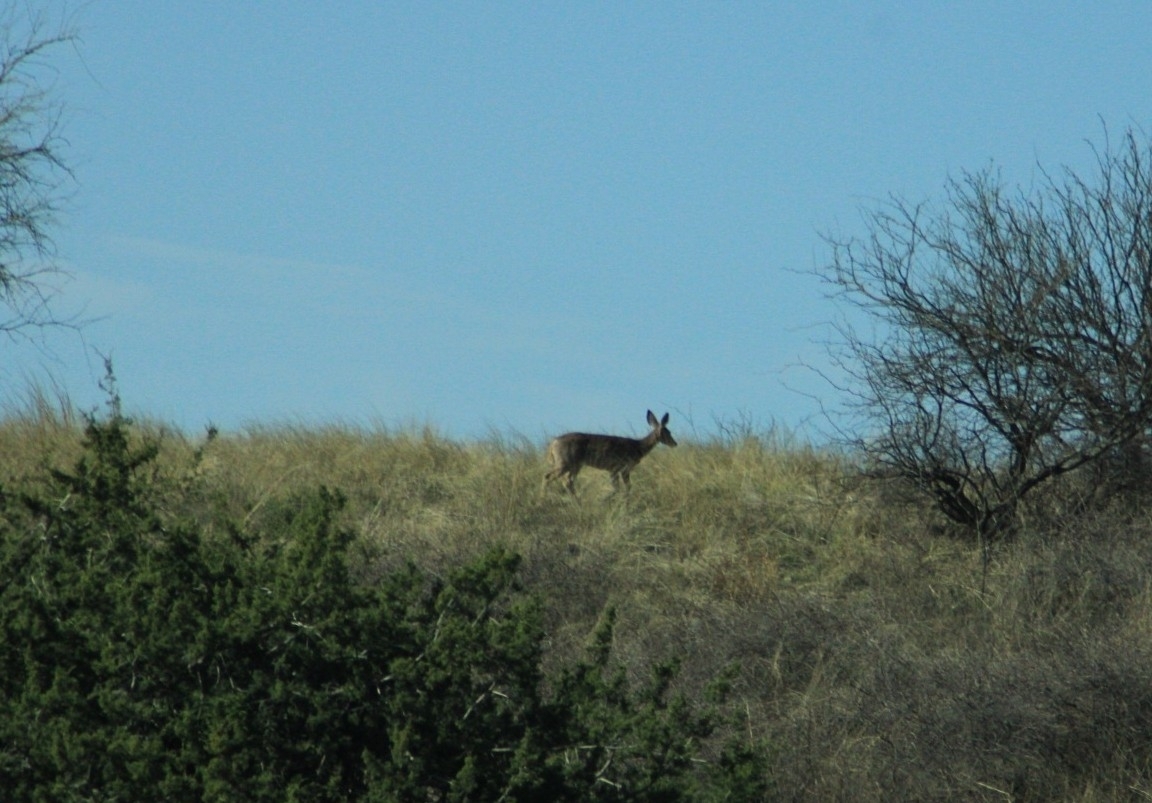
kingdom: Animalia
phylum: Chordata
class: Mammalia
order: Artiodactyla
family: Cervidae
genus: Odocoileus
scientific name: Odocoileus virginianus
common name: White-tailed deer
